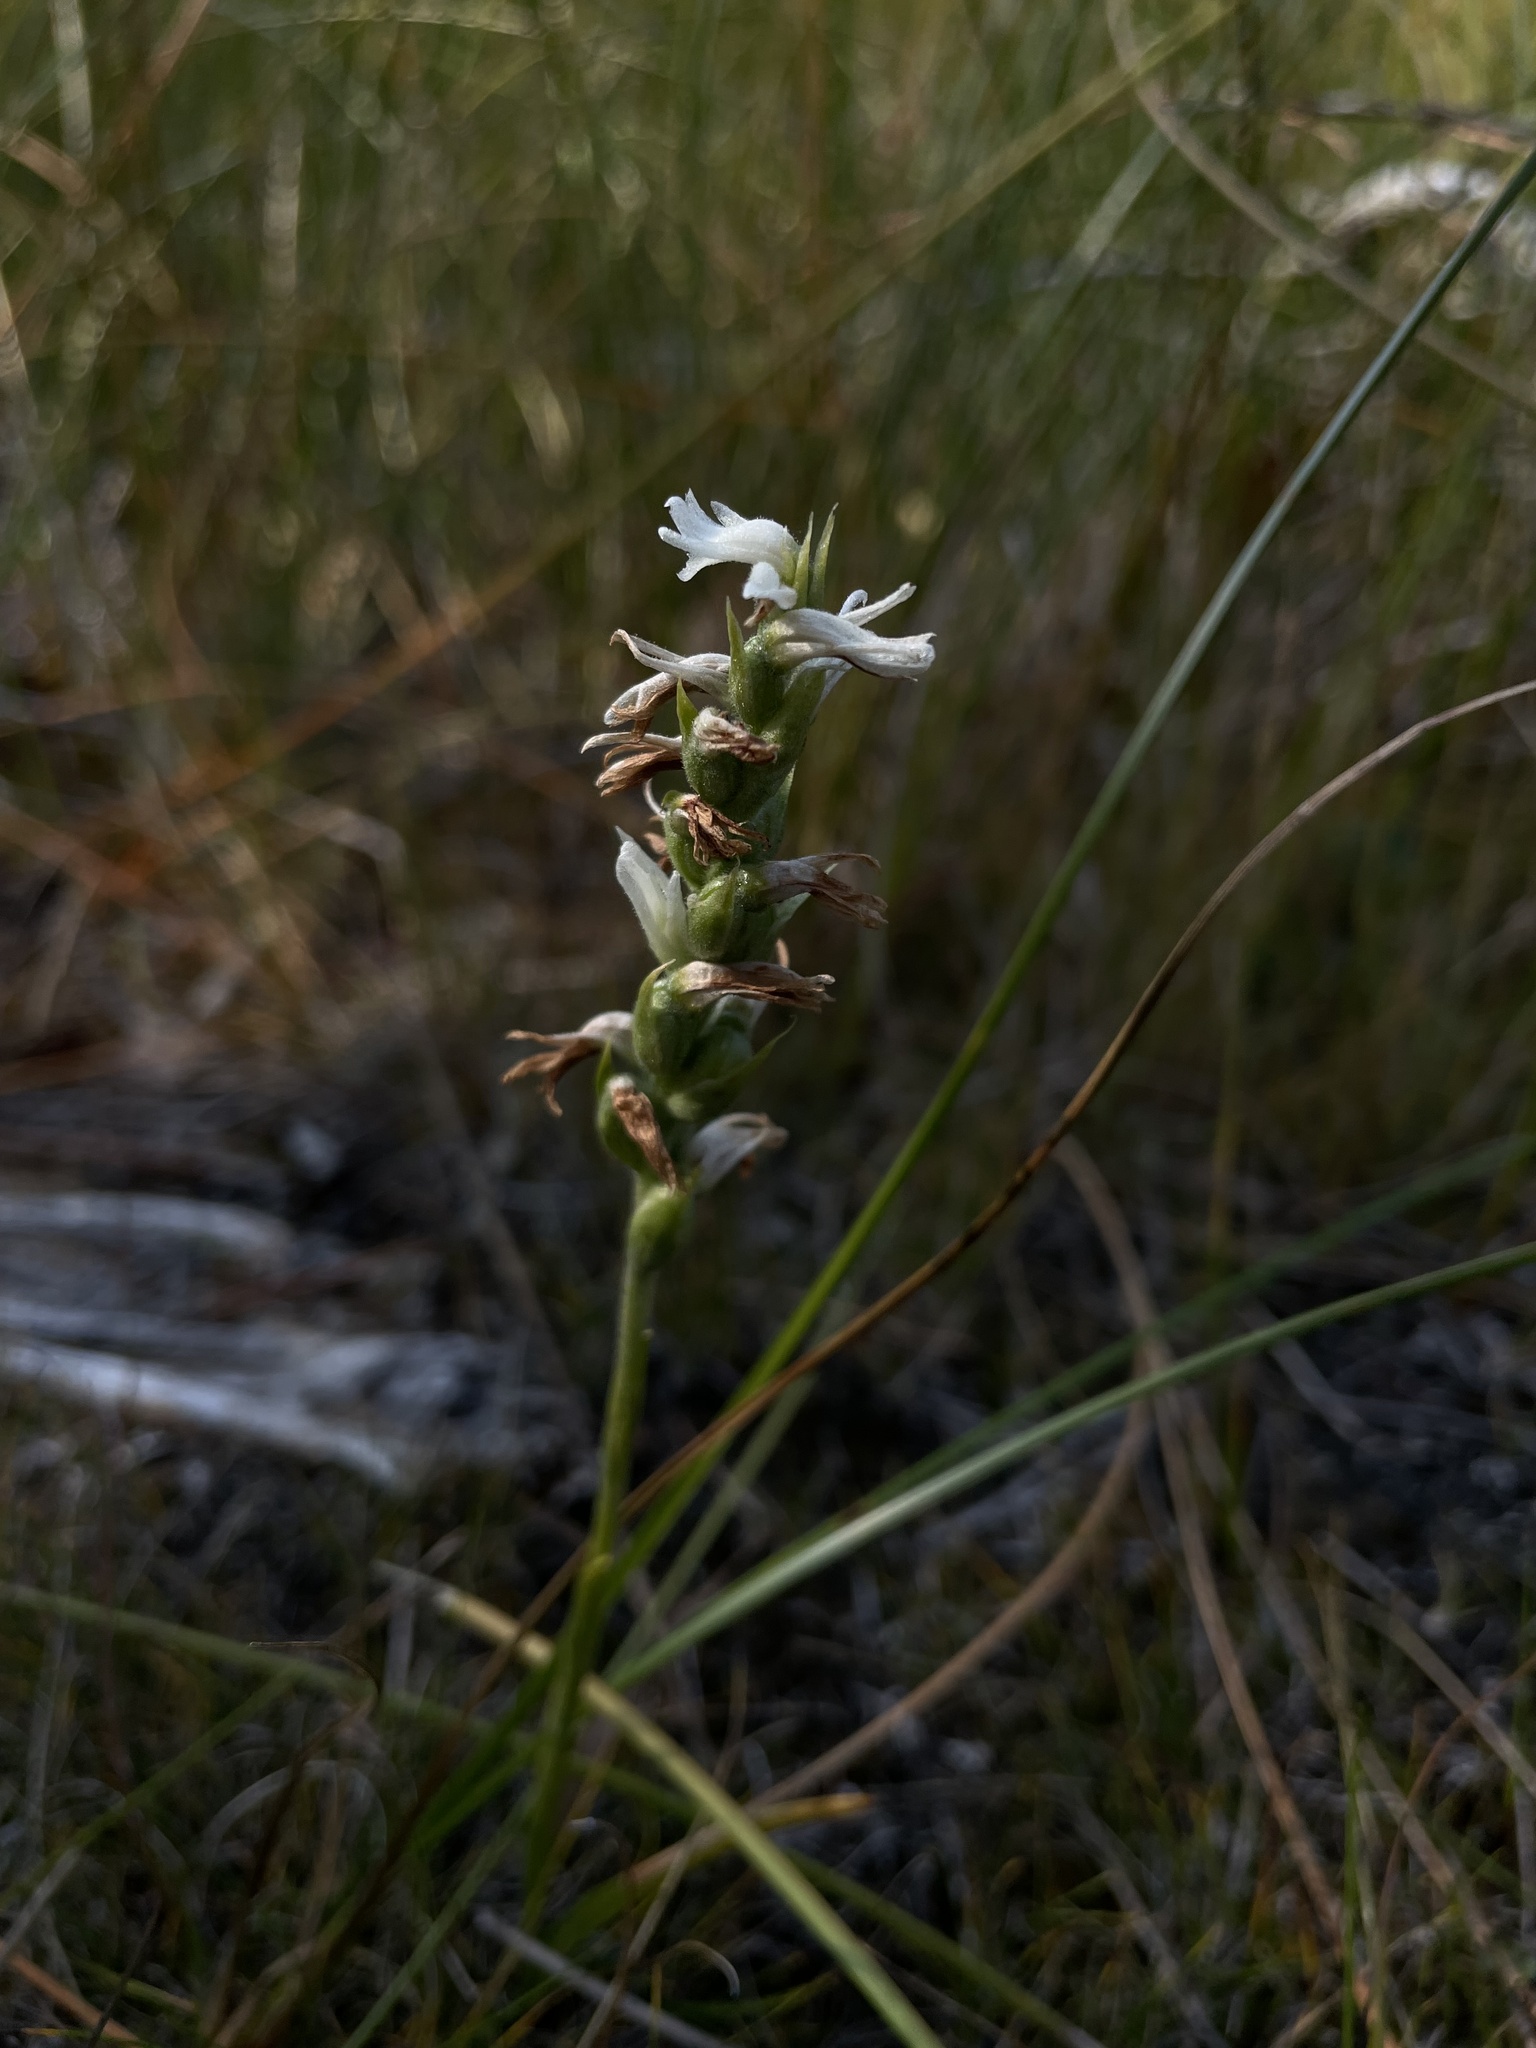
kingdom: Plantae
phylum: Tracheophyta
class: Liliopsida
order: Asparagales
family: Orchidaceae
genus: Spiranthes
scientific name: Spiranthes incurva
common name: Sphinx ladies'-tresses
